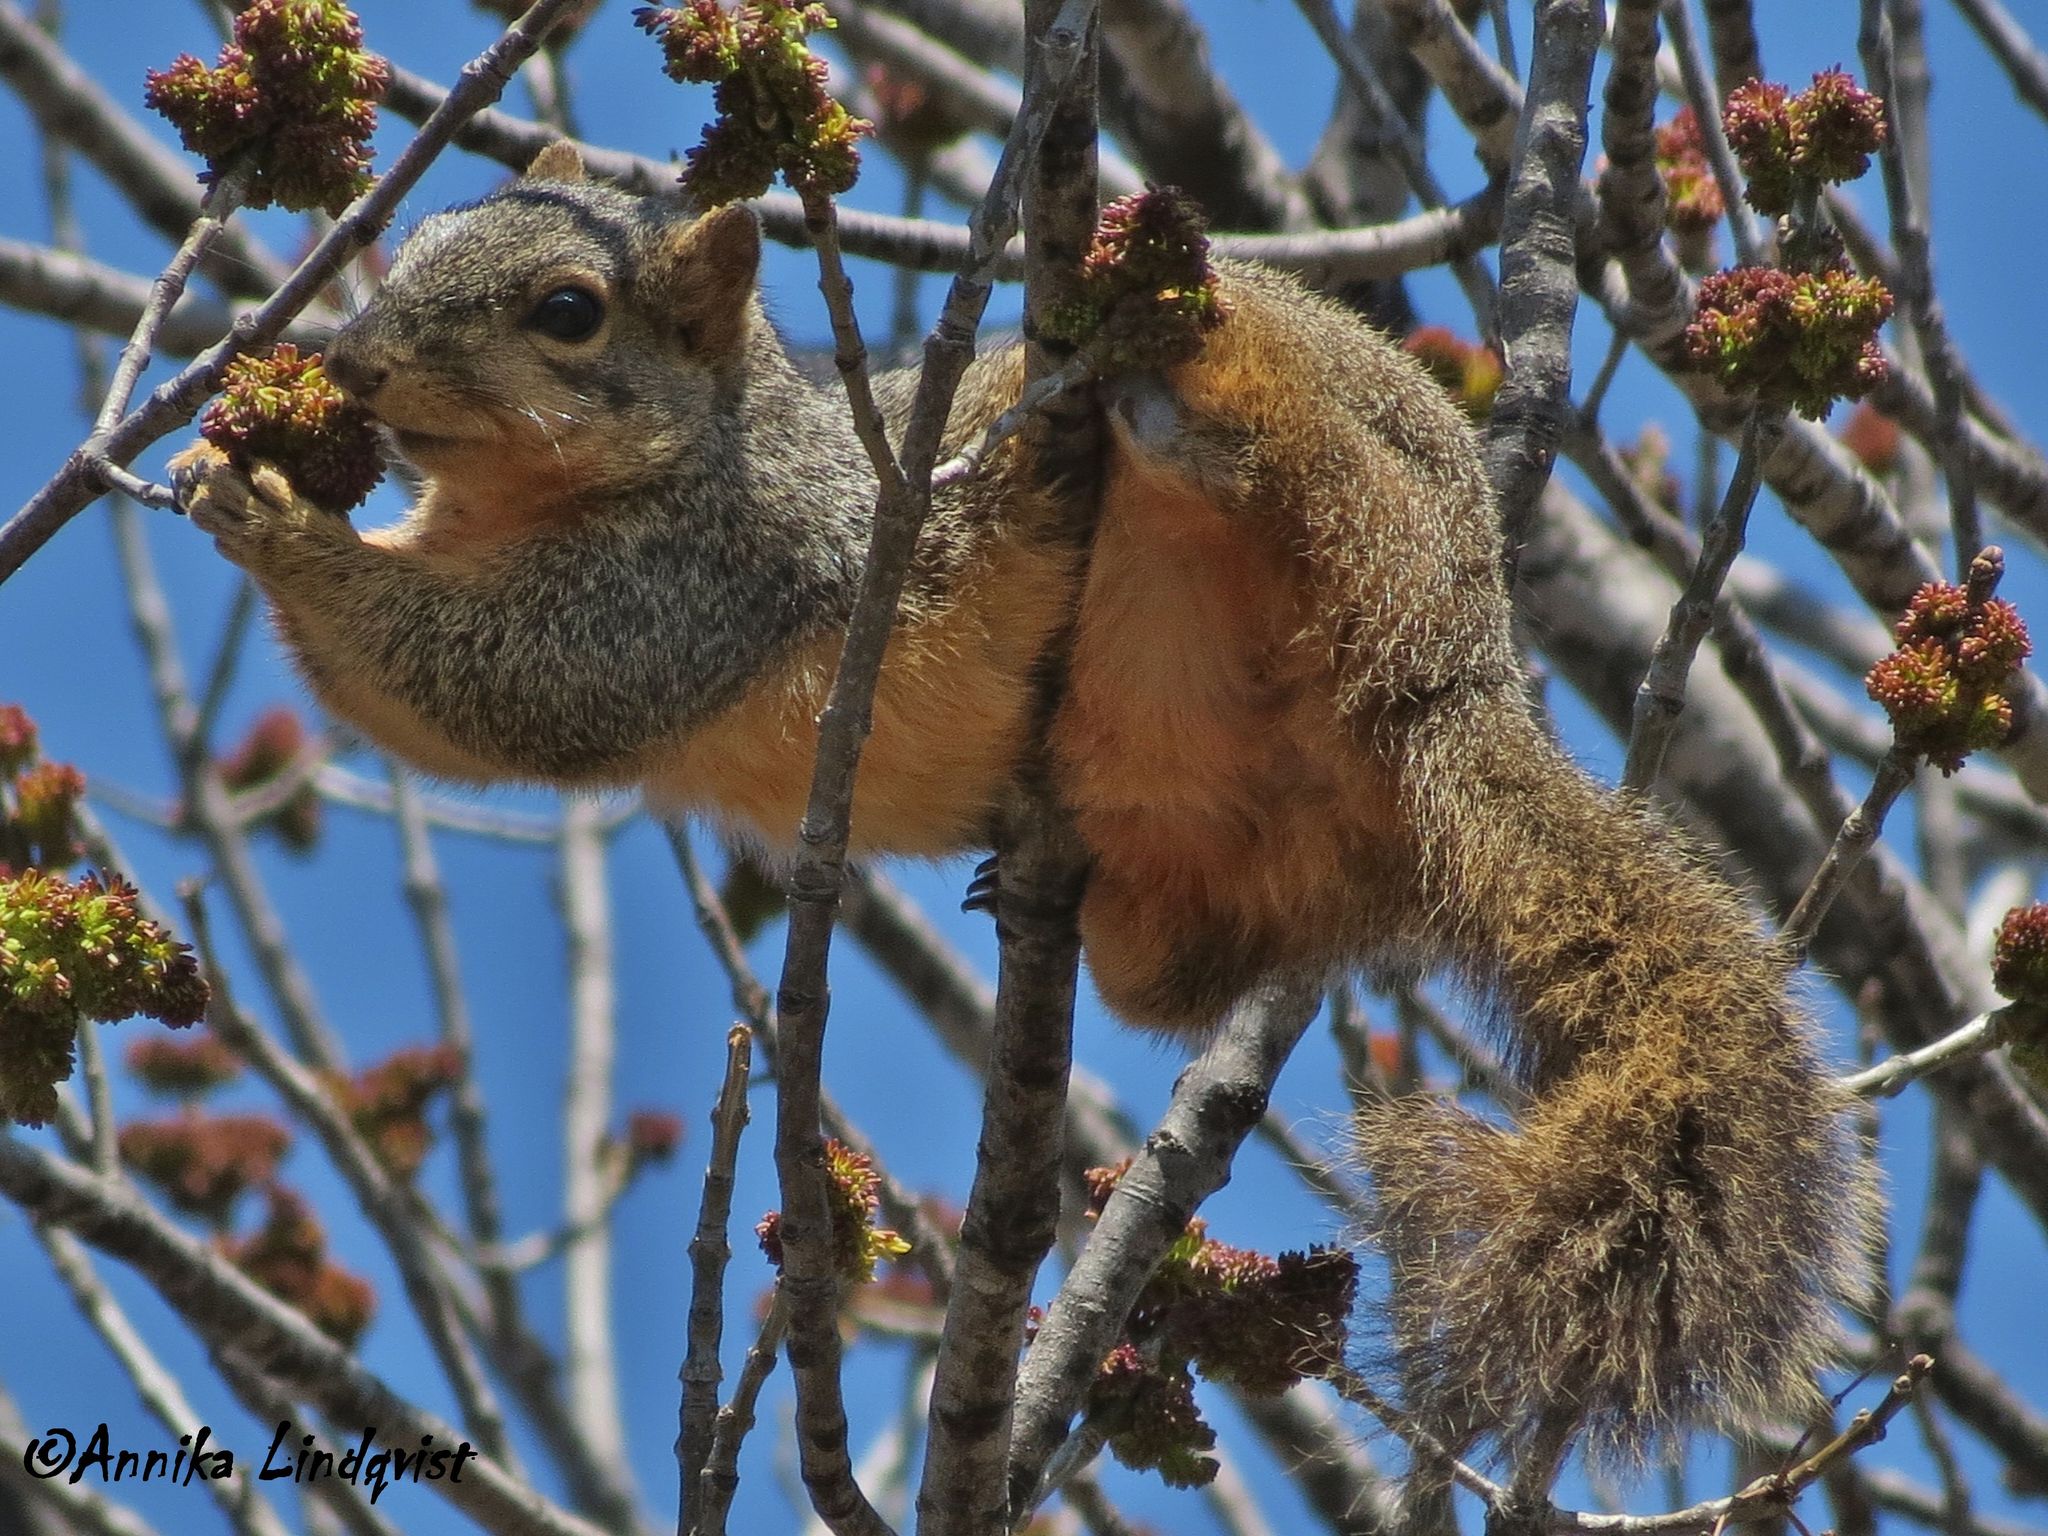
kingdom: Animalia
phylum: Chordata
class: Mammalia
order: Rodentia
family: Sciuridae
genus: Sciurus
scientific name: Sciurus niger
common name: Fox squirrel
